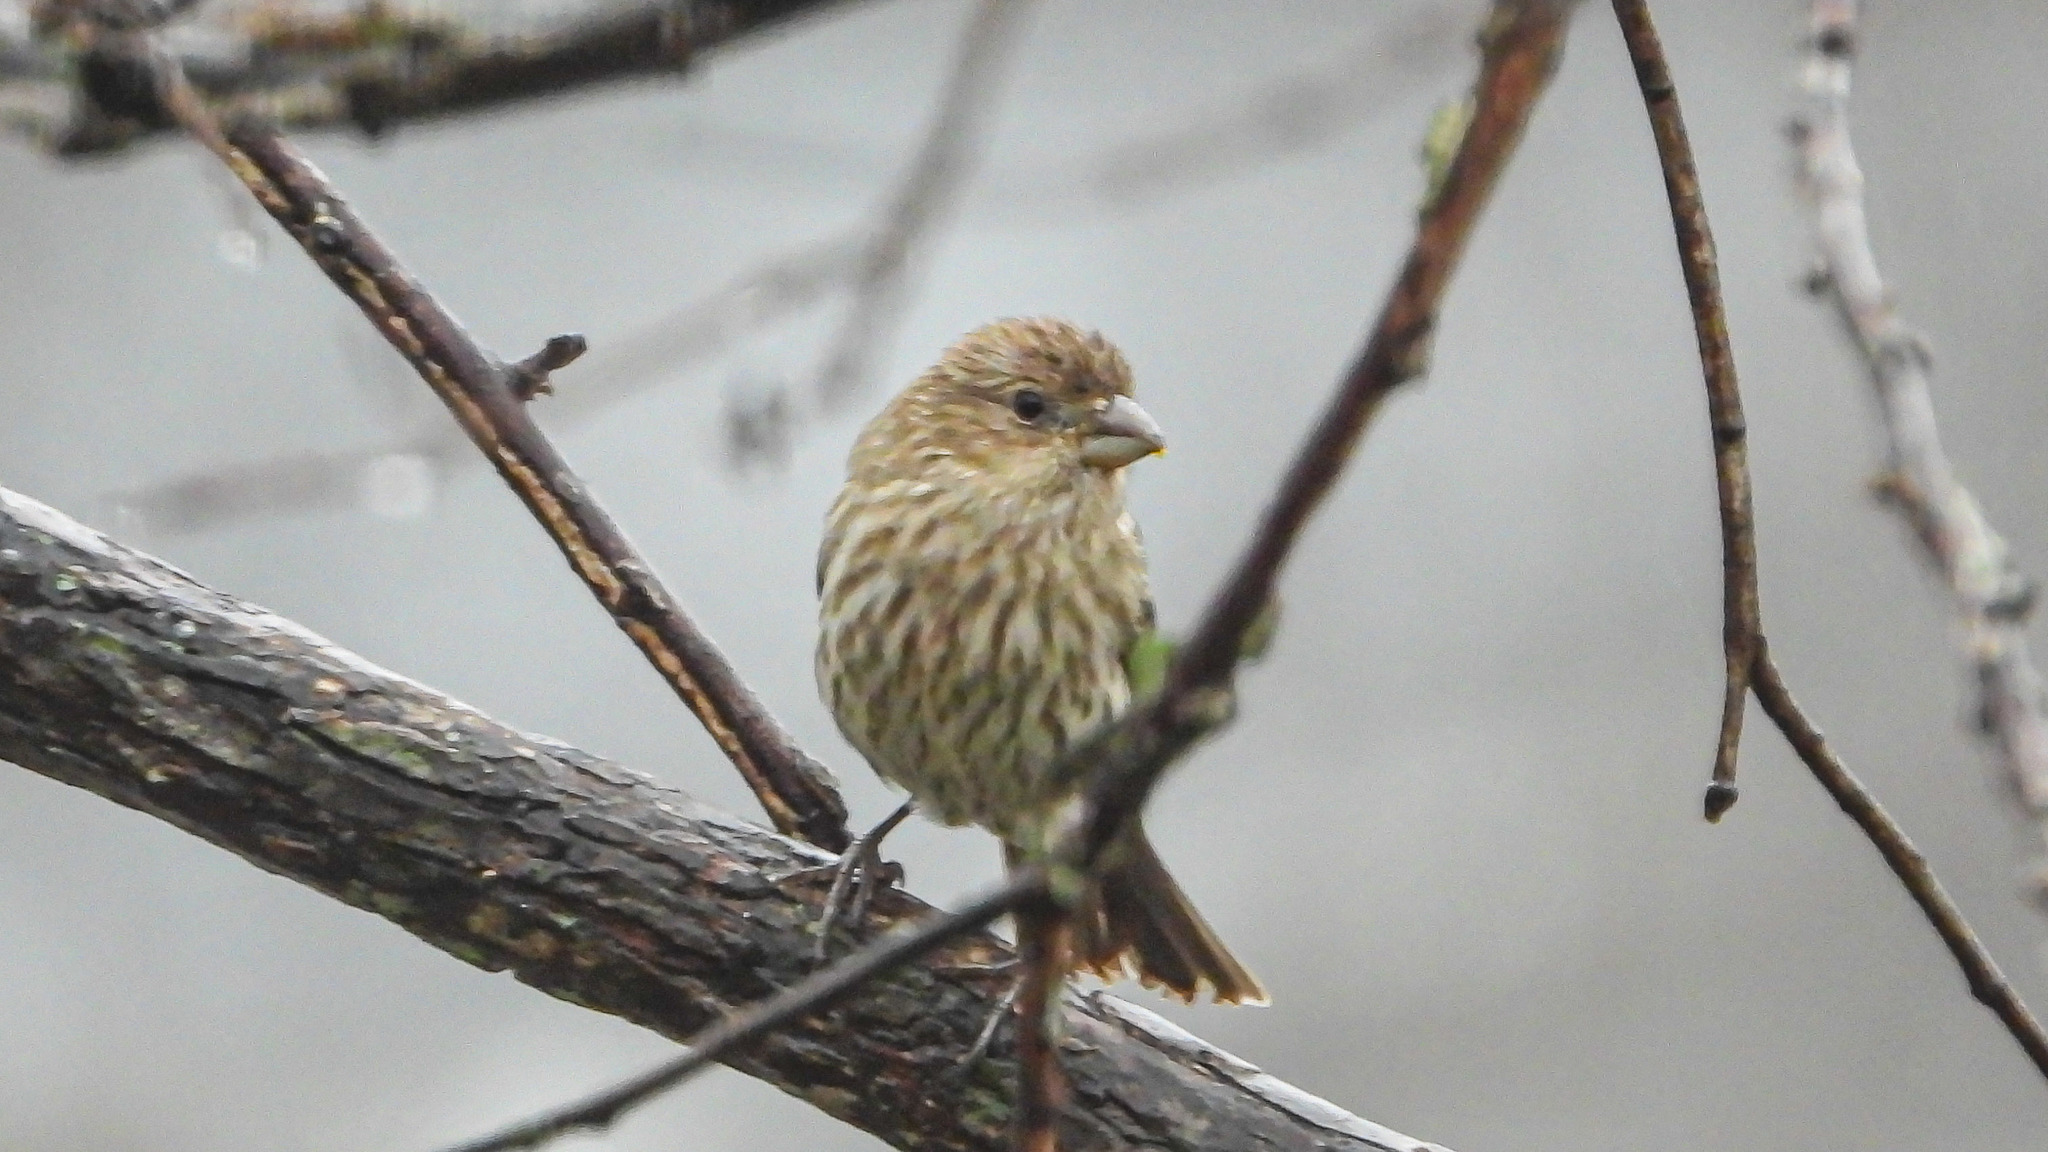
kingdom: Animalia
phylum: Chordata
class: Aves
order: Passeriformes
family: Fringillidae
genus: Haemorhous
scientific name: Haemorhous mexicanus
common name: House finch
